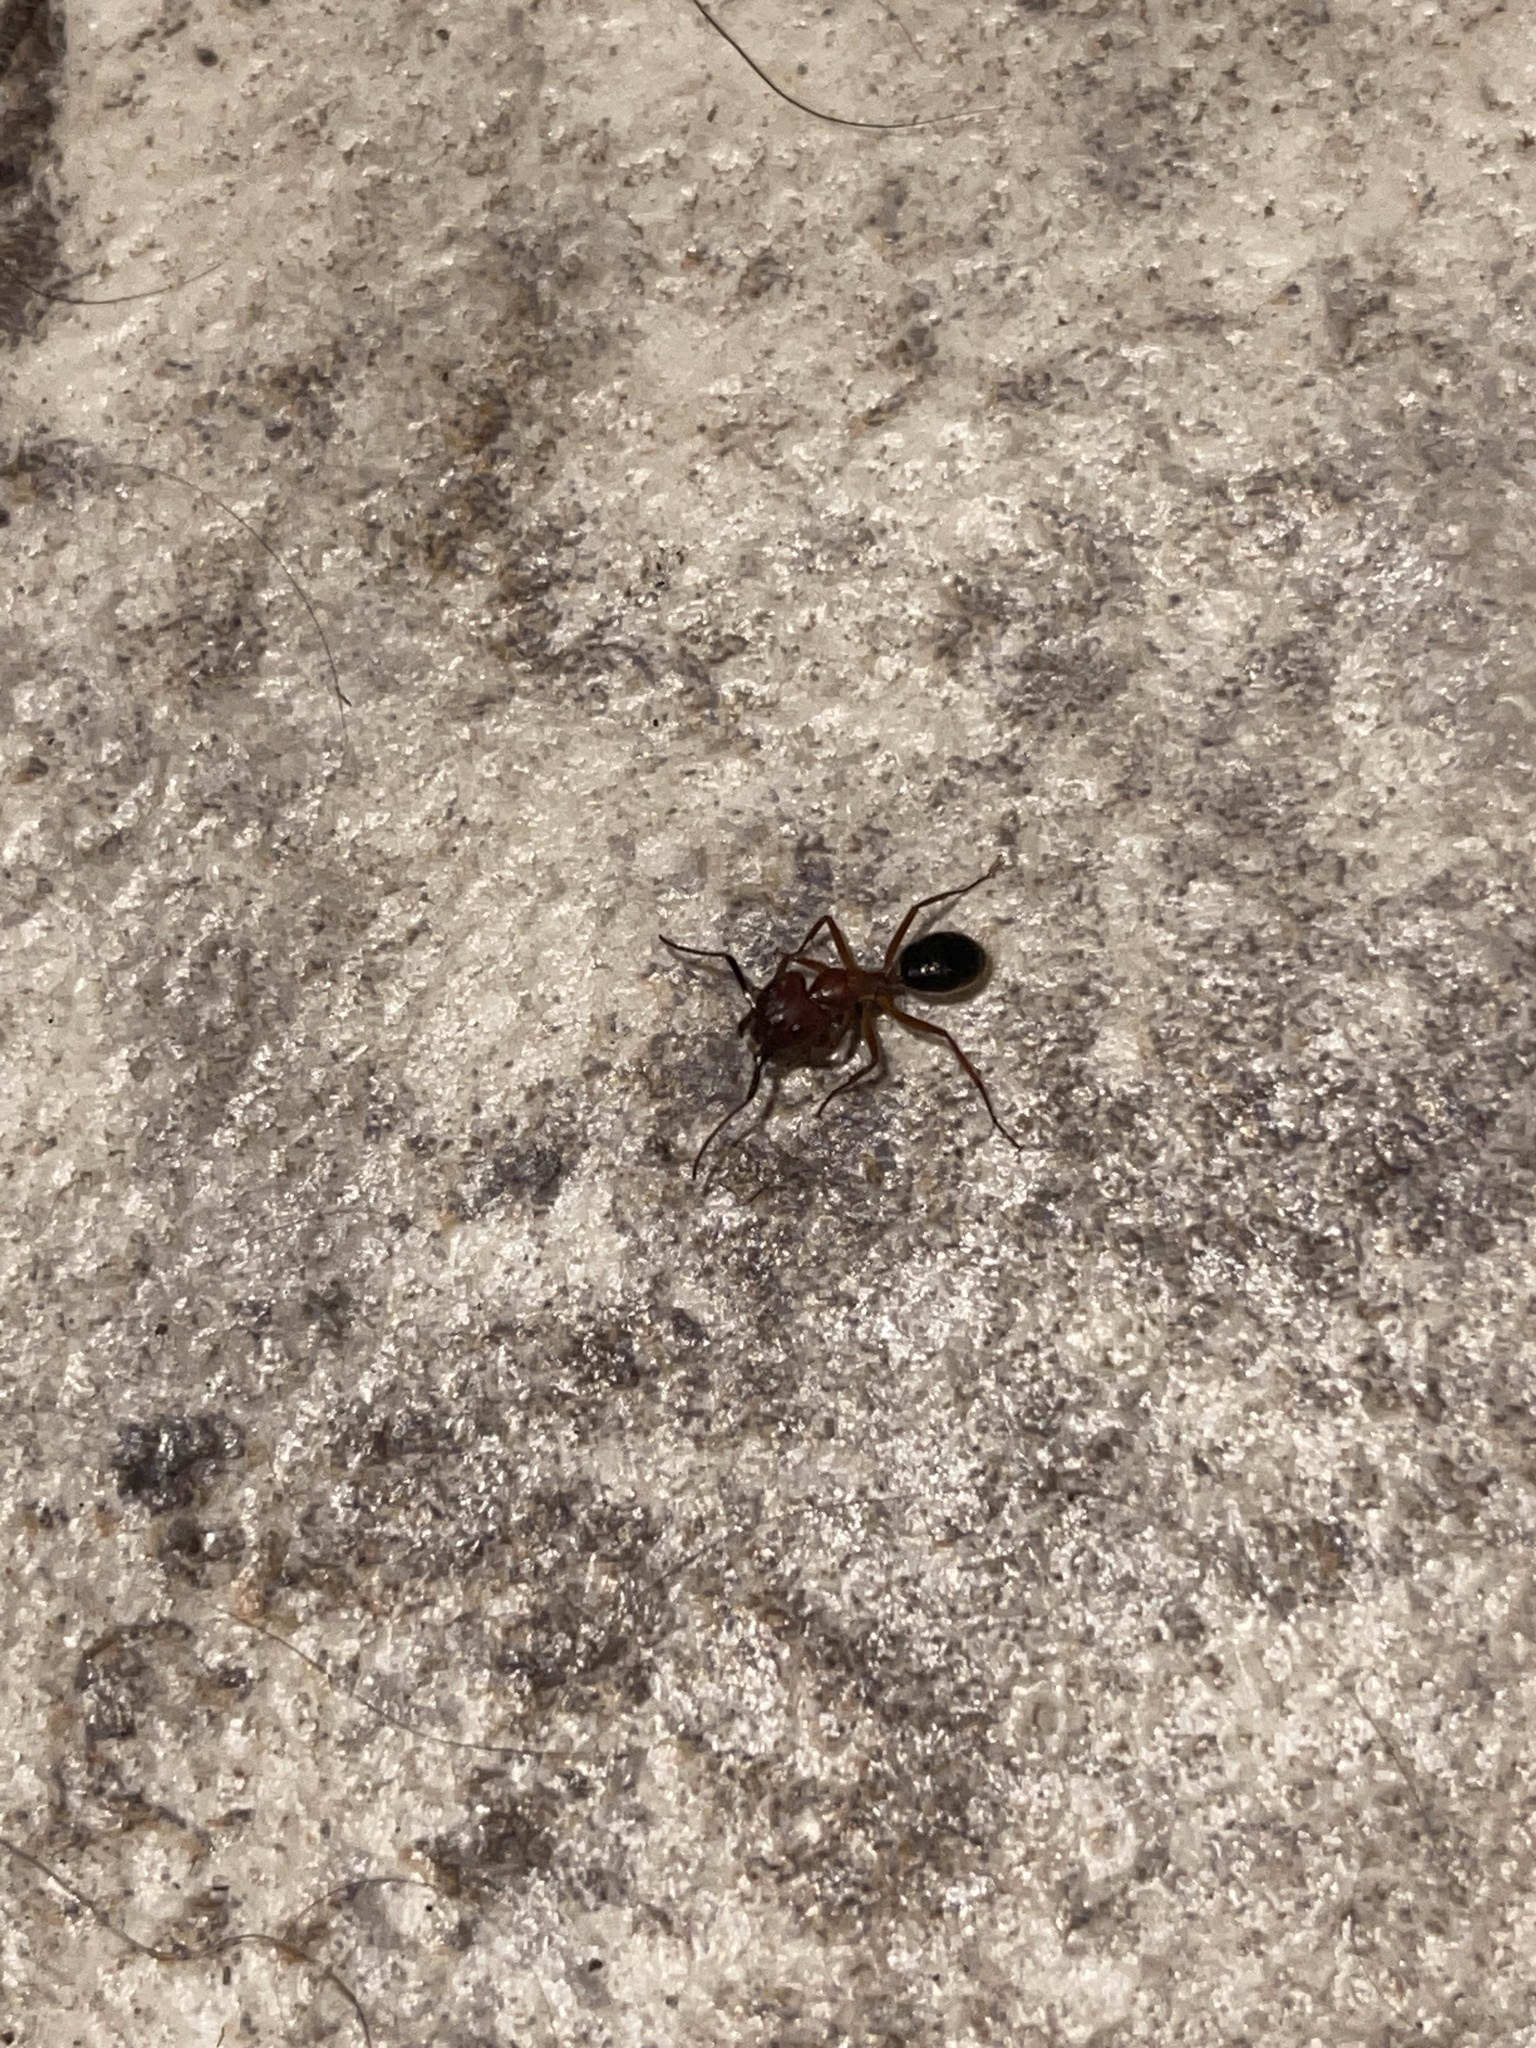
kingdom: Animalia
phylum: Arthropoda
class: Insecta
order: Hymenoptera
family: Formicidae
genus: Camponotus
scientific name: Camponotus floridanus
